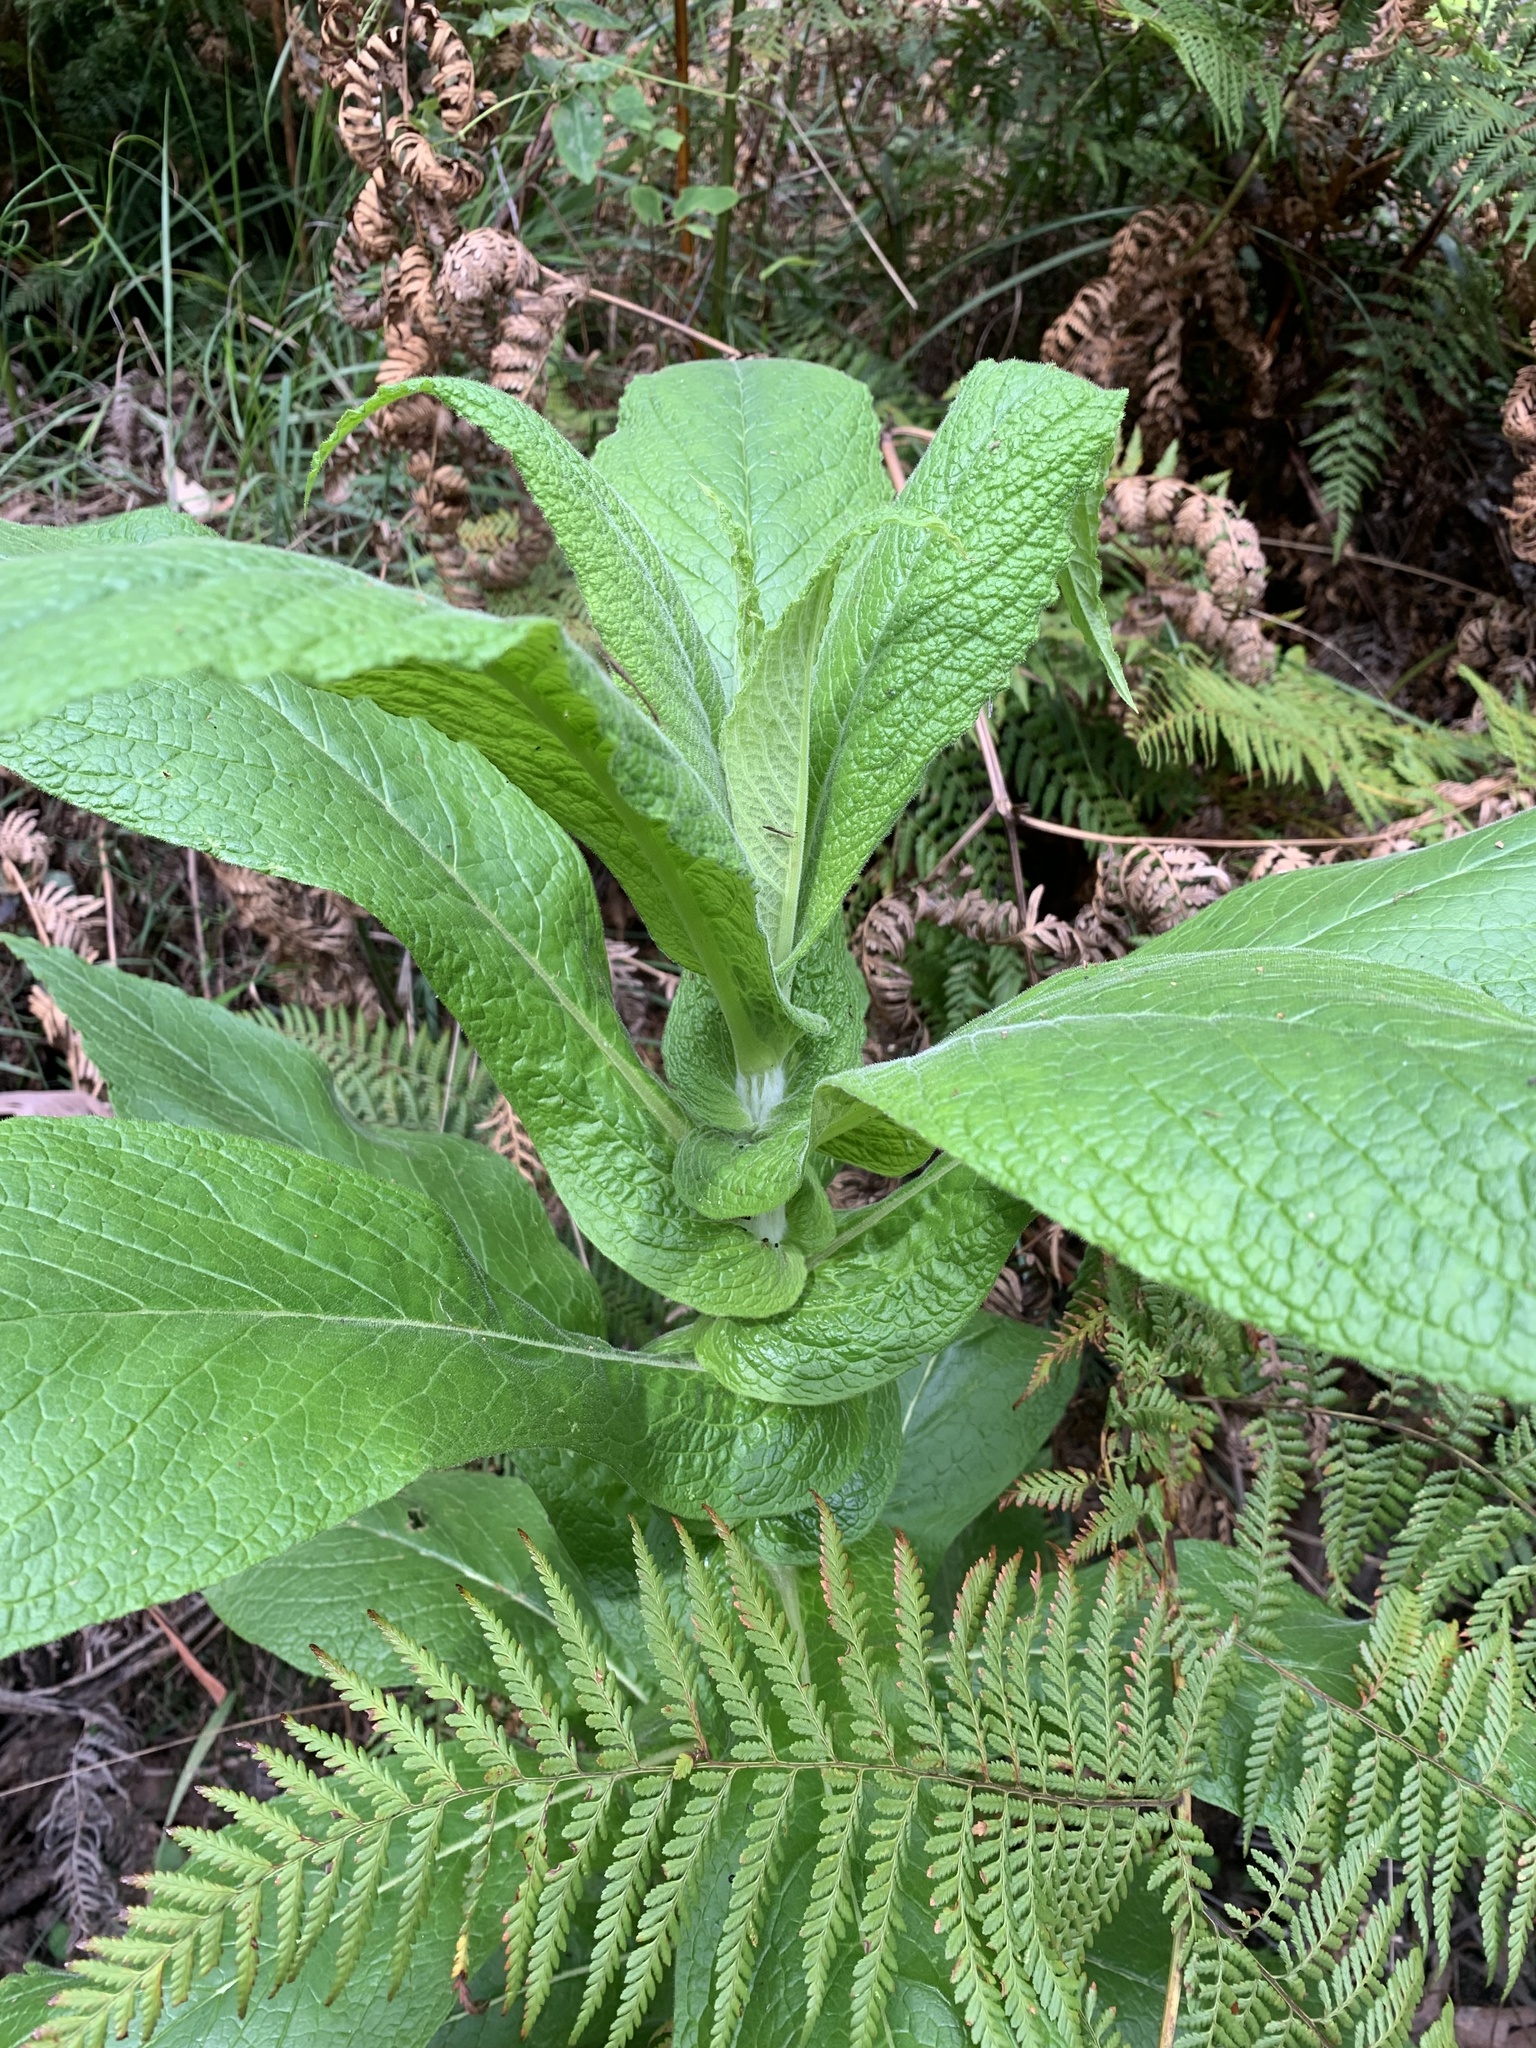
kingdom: Plantae
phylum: Tracheophyta
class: Magnoliopsida
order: Asterales
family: Asteraceae
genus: Calomeria
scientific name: Calomeria amaranthoides
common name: Incenseplant
